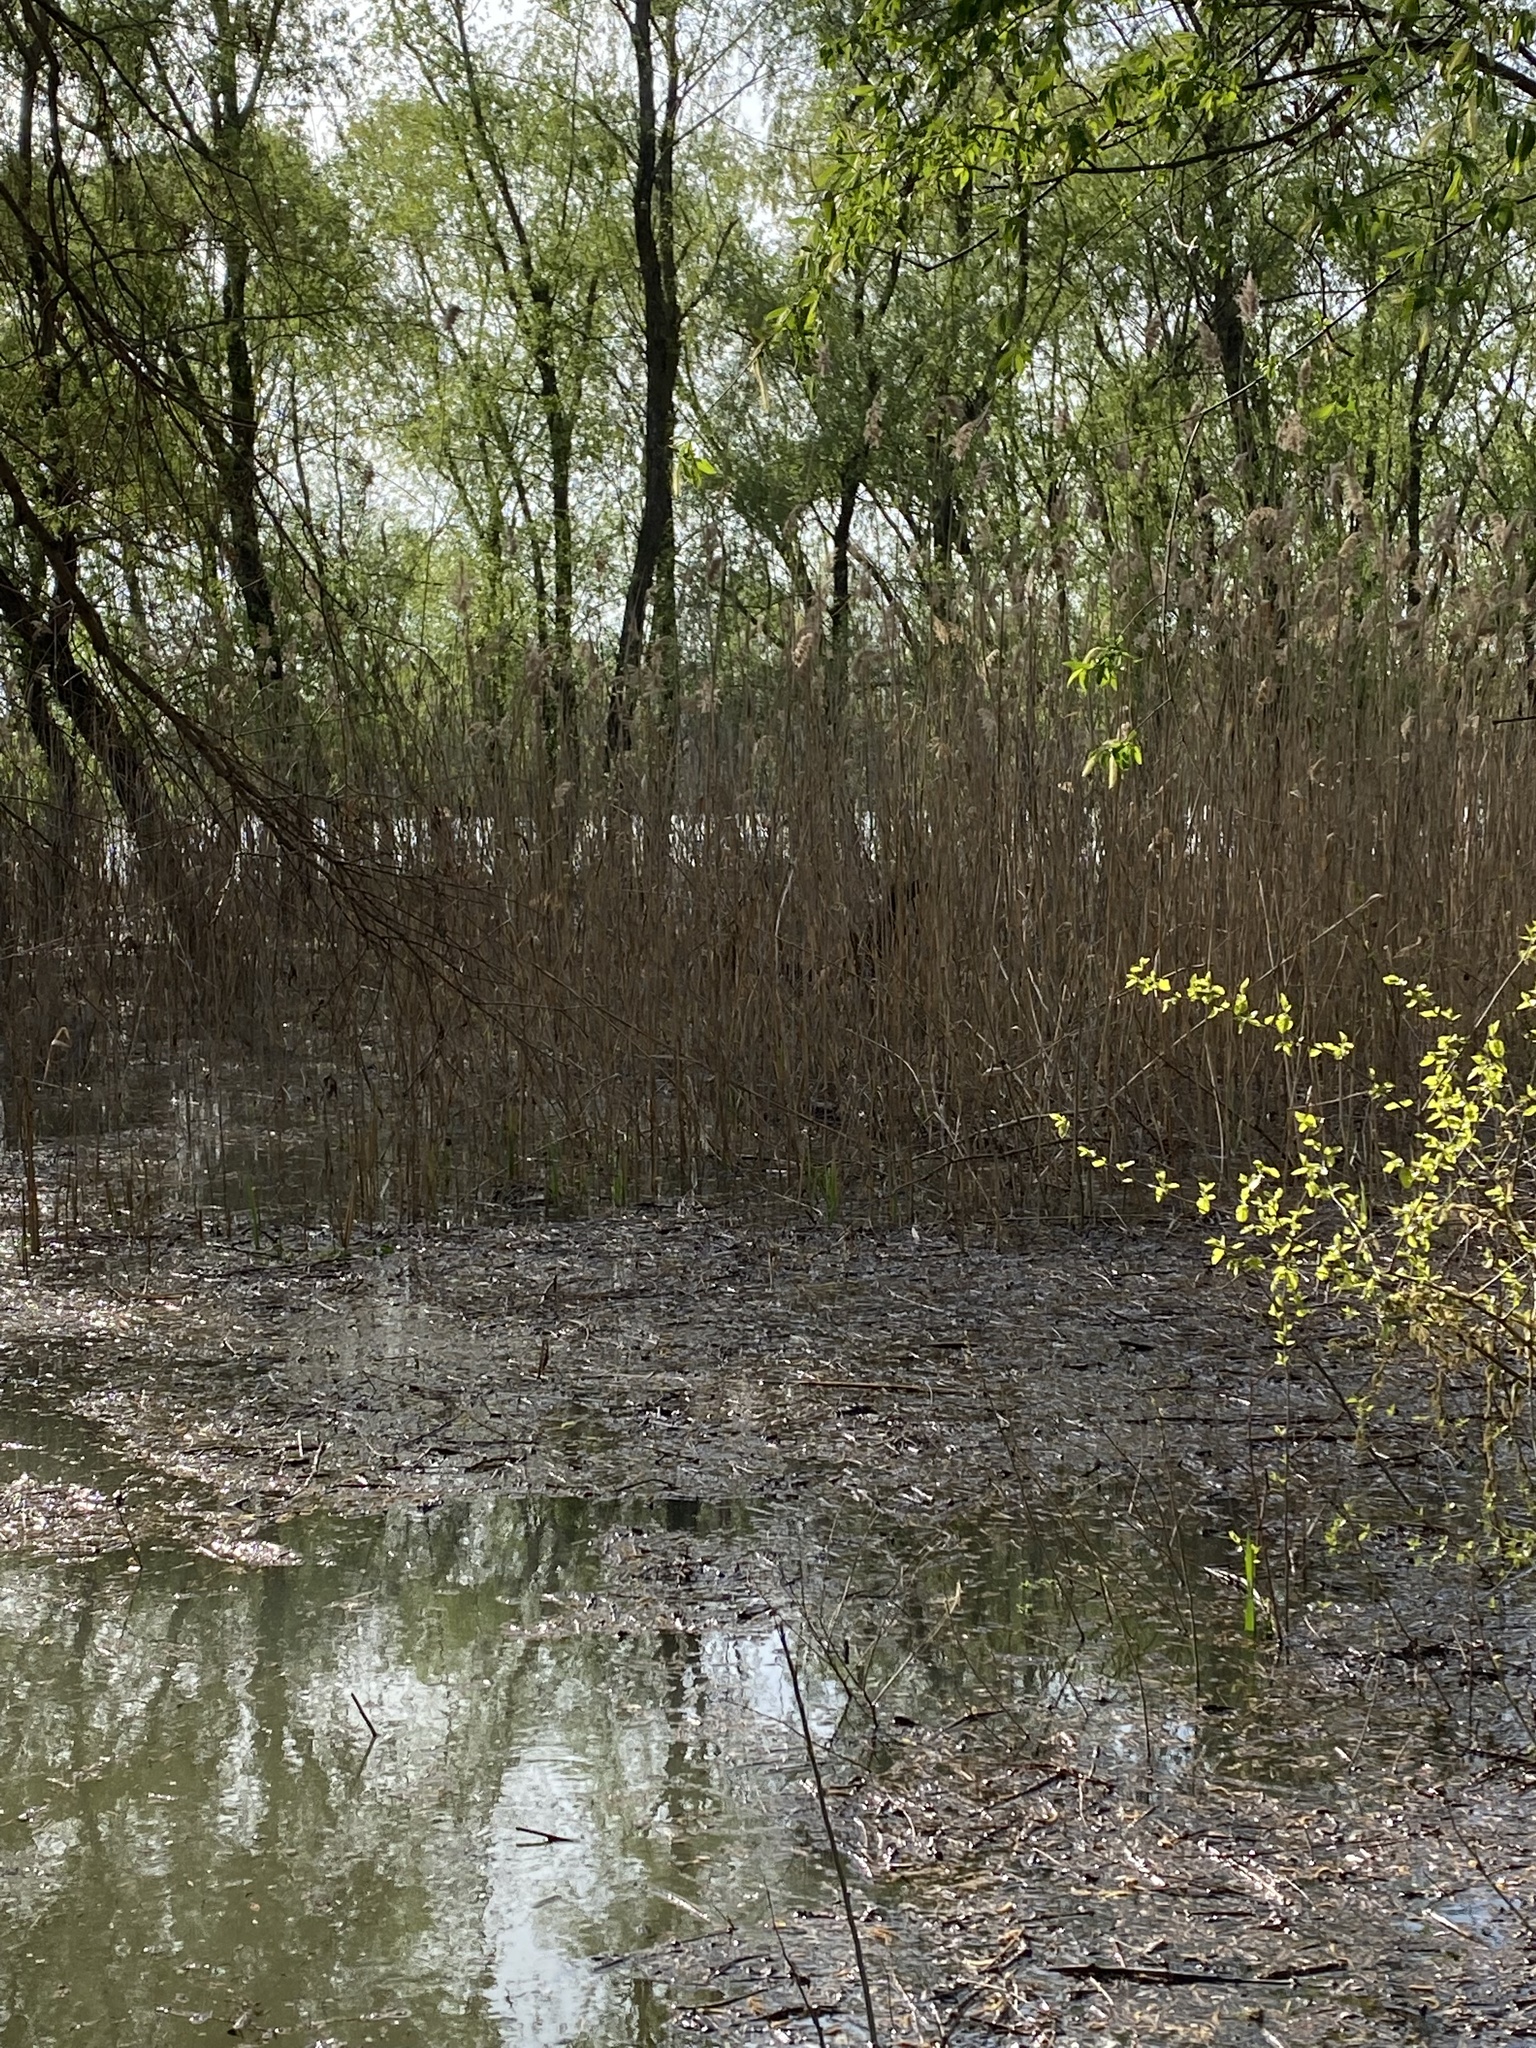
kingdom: Plantae
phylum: Tracheophyta
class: Liliopsida
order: Poales
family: Poaceae
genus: Phragmites
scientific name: Phragmites australis
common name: Common reed
